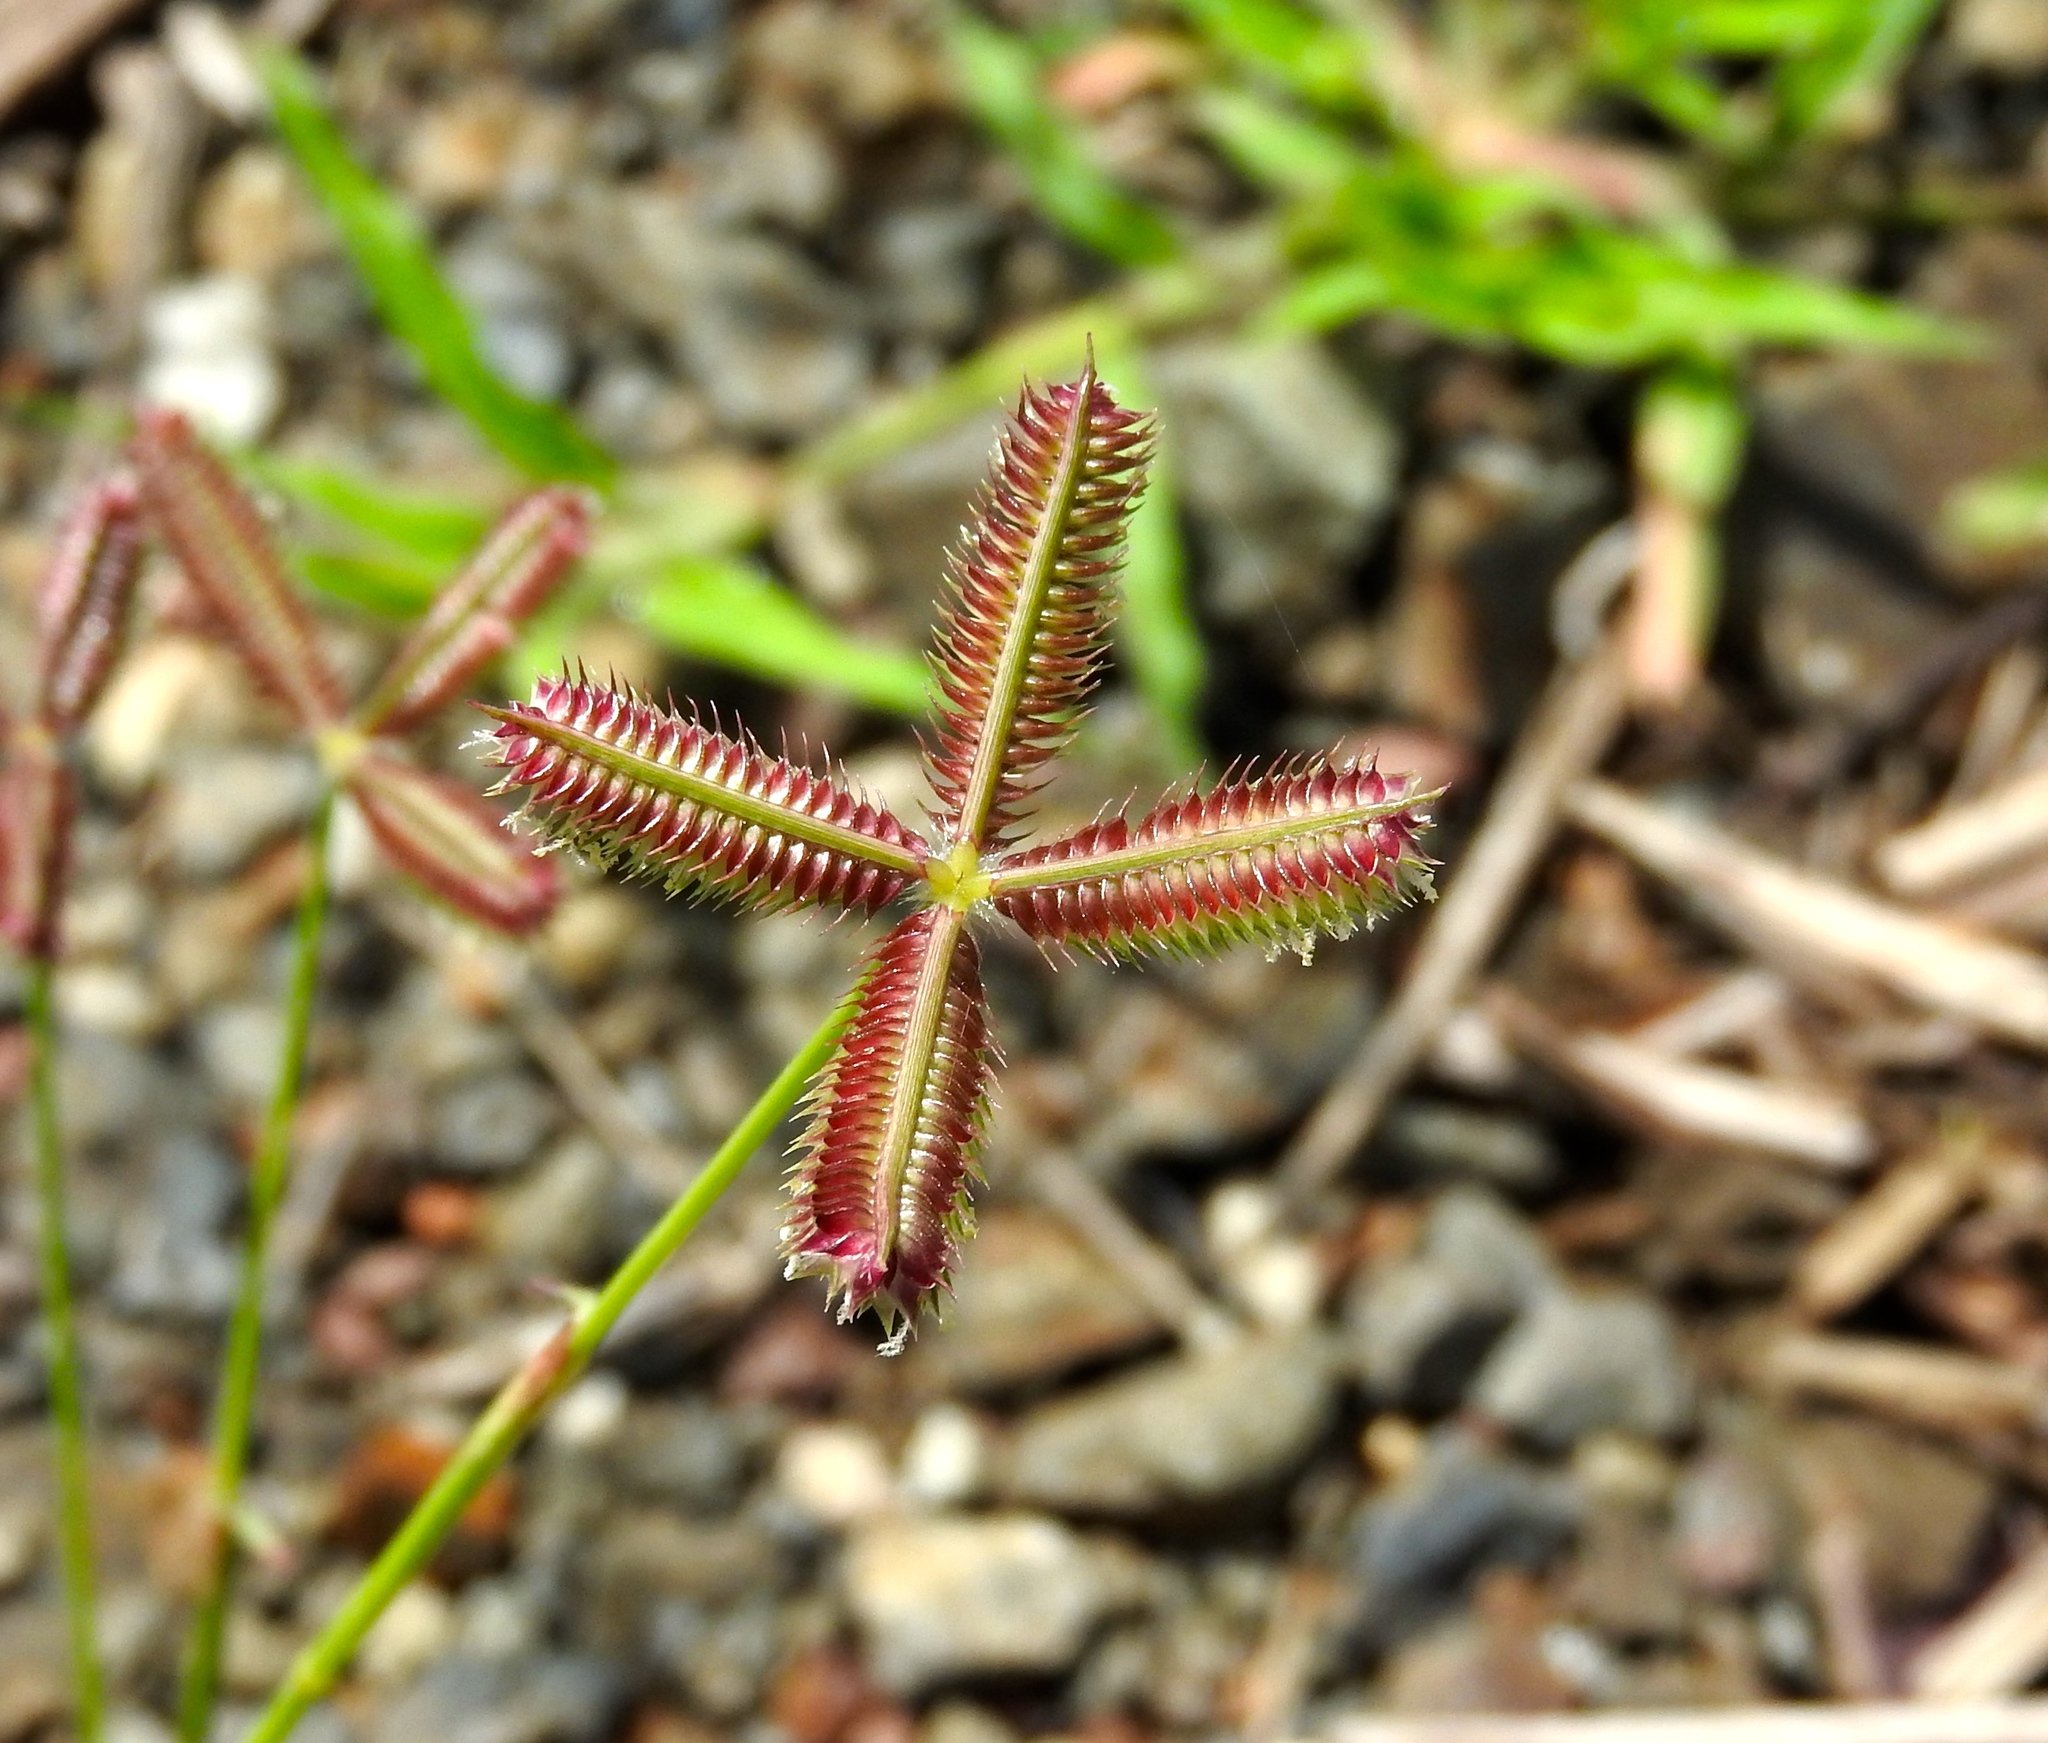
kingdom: Plantae
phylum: Tracheophyta
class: Liliopsida
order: Poales
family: Poaceae
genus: Dactyloctenium
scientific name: Dactyloctenium aegyptium
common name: Egyptian grass
